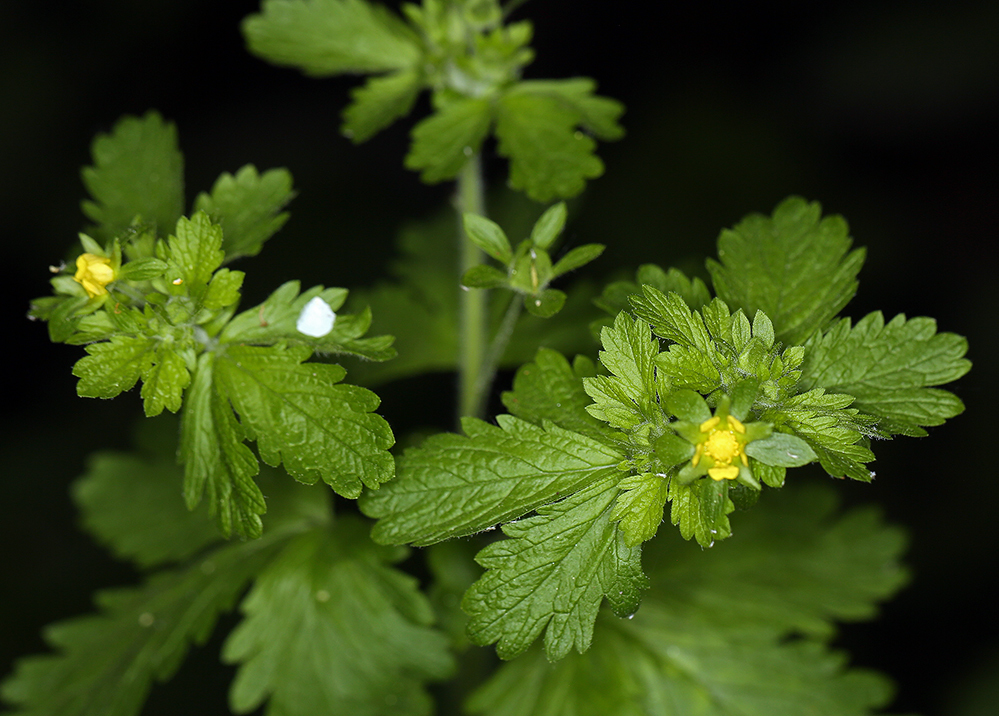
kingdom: Plantae
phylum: Tracheophyta
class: Magnoliopsida
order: Rosales
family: Rosaceae
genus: Potentilla
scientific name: Potentilla biennis
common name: Greene's cinquefoil
